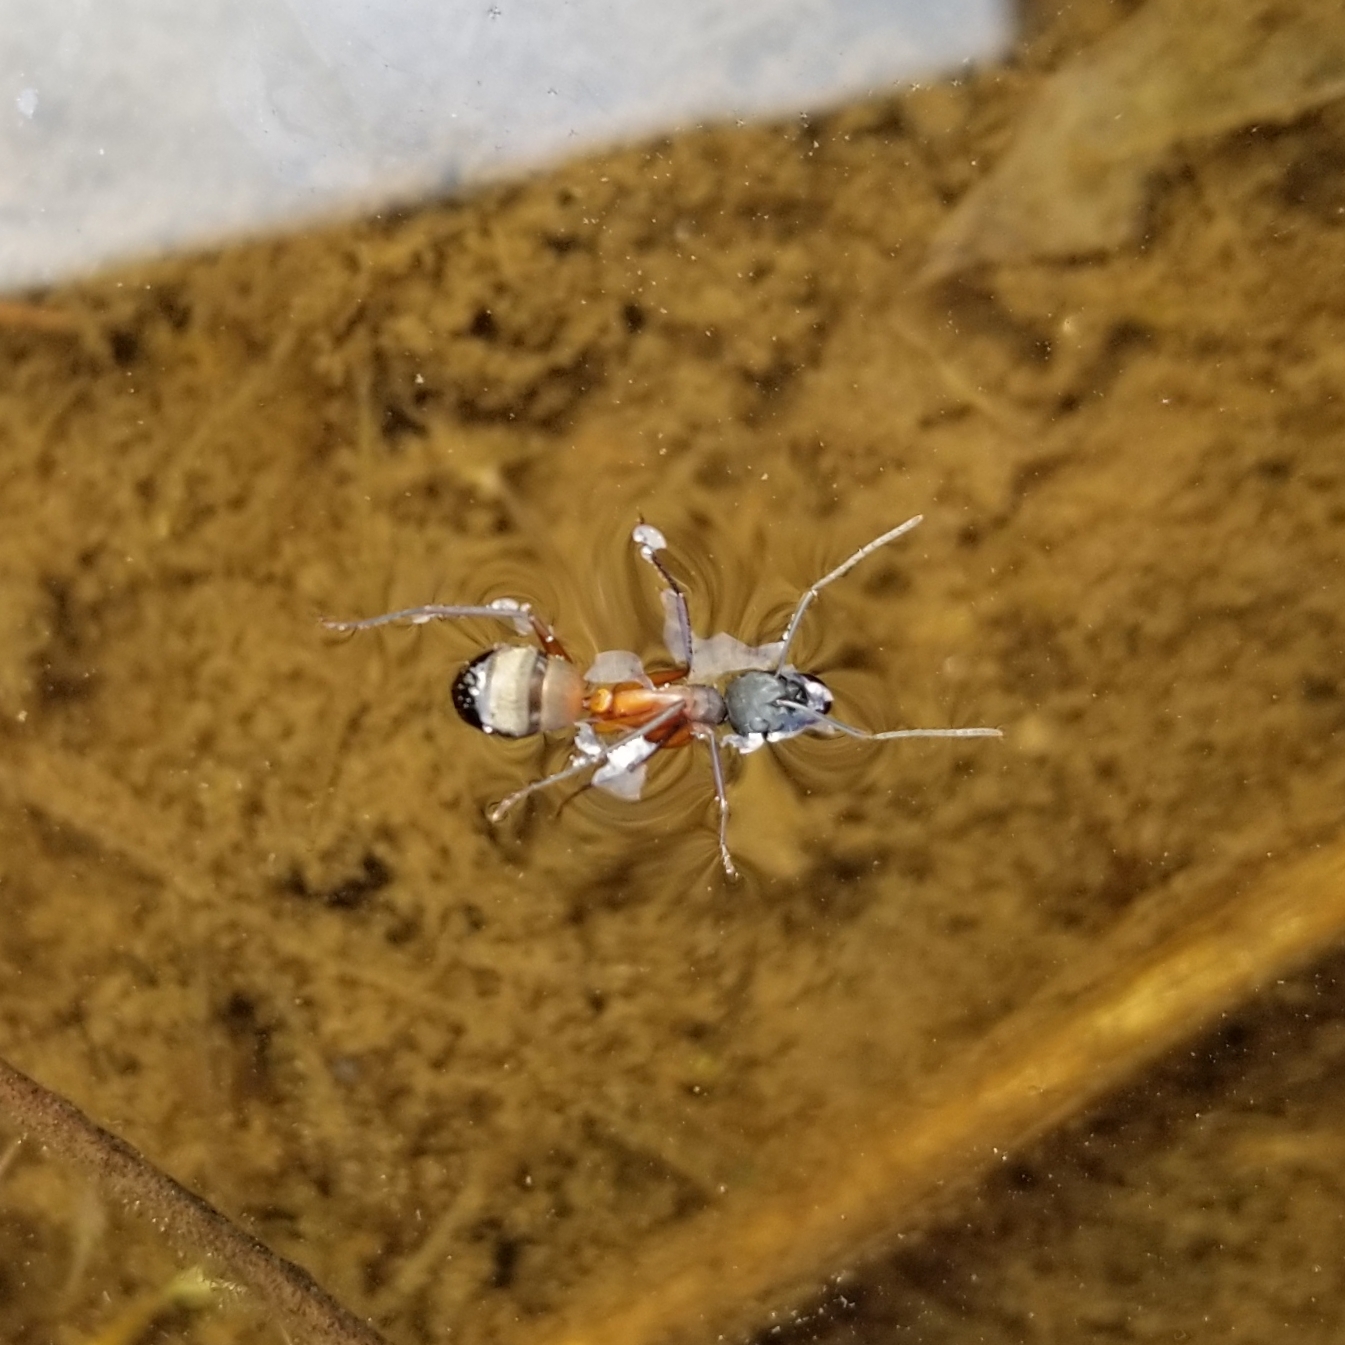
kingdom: Animalia
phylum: Arthropoda
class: Insecta
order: Hymenoptera
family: Formicidae
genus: Camponotus
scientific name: Camponotus chromaiodes
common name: Red carpenter ant
